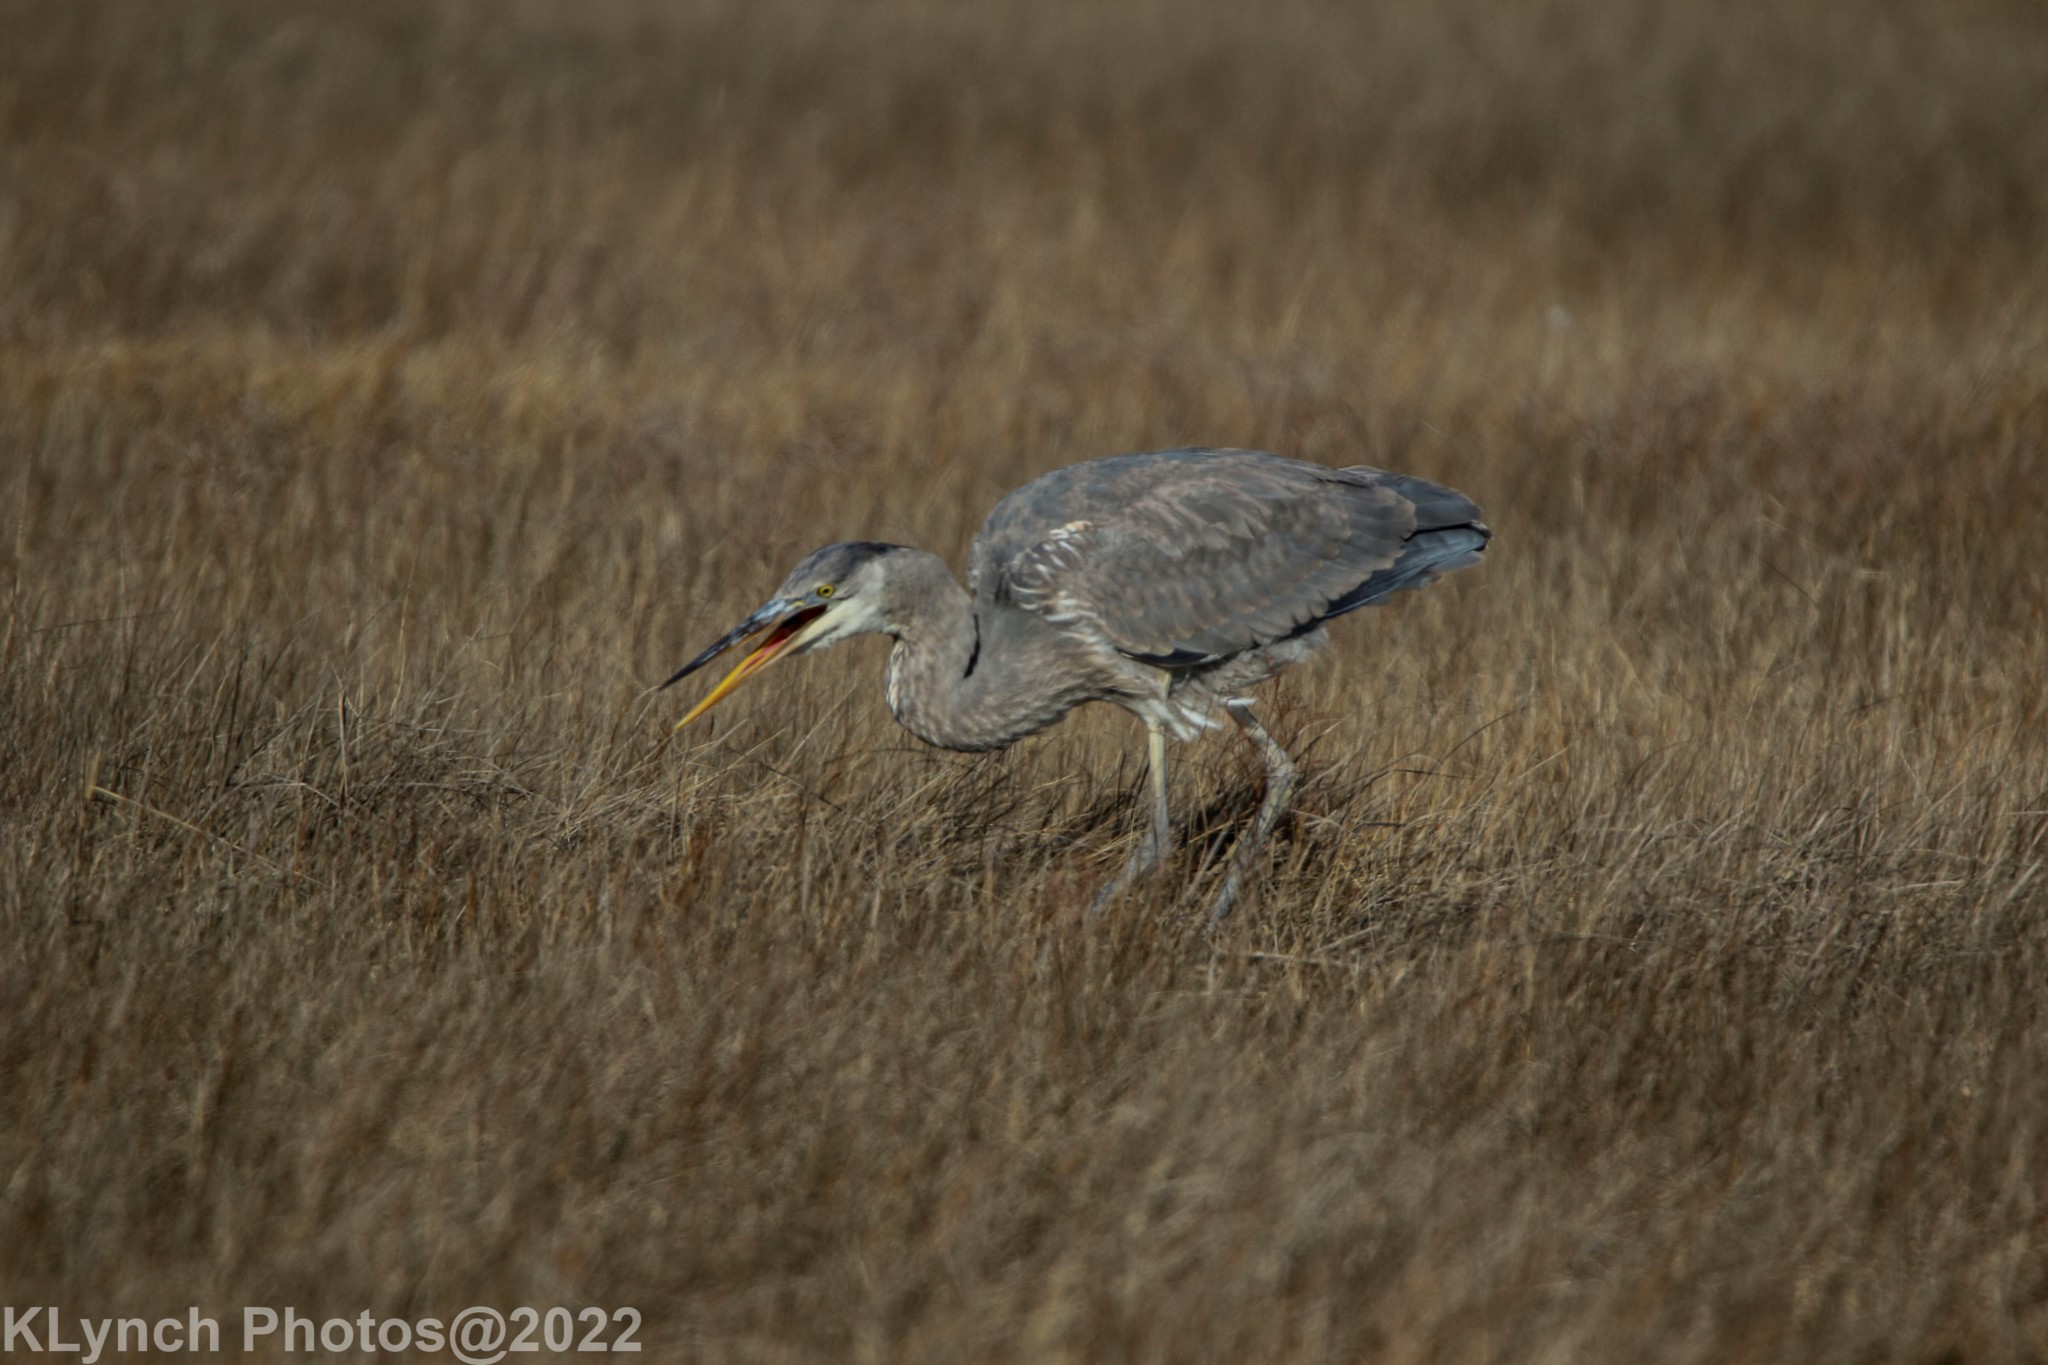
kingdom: Animalia
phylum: Chordata
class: Aves
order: Pelecaniformes
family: Ardeidae
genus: Ardea
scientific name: Ardea herodias
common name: Great blue heron
